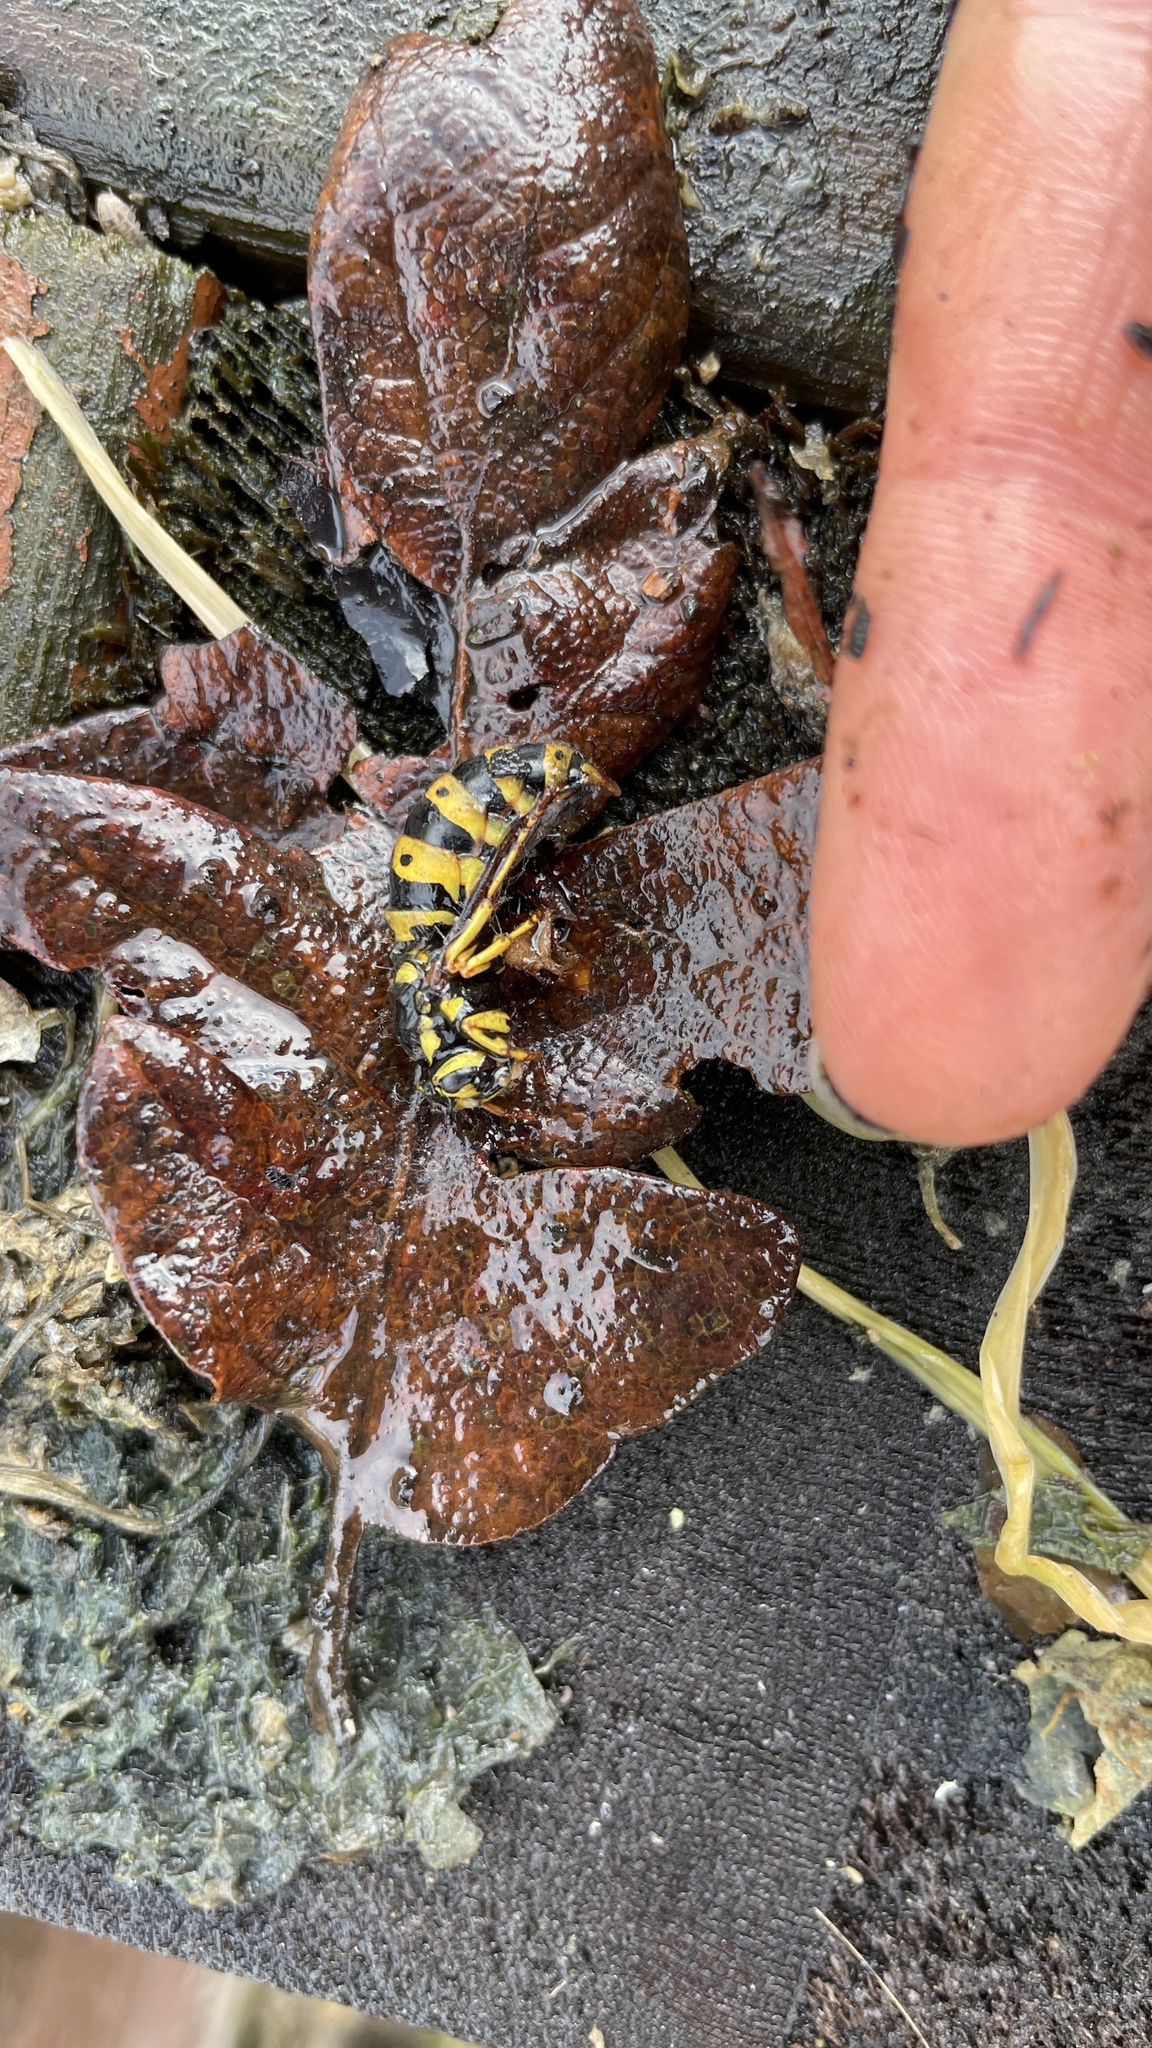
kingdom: Animalia
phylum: Arthropoda
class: Insecta
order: Hymenoptera
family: Vespidae
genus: Vespula
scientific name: Vespula pensylvanica
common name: Western yellowjacket
